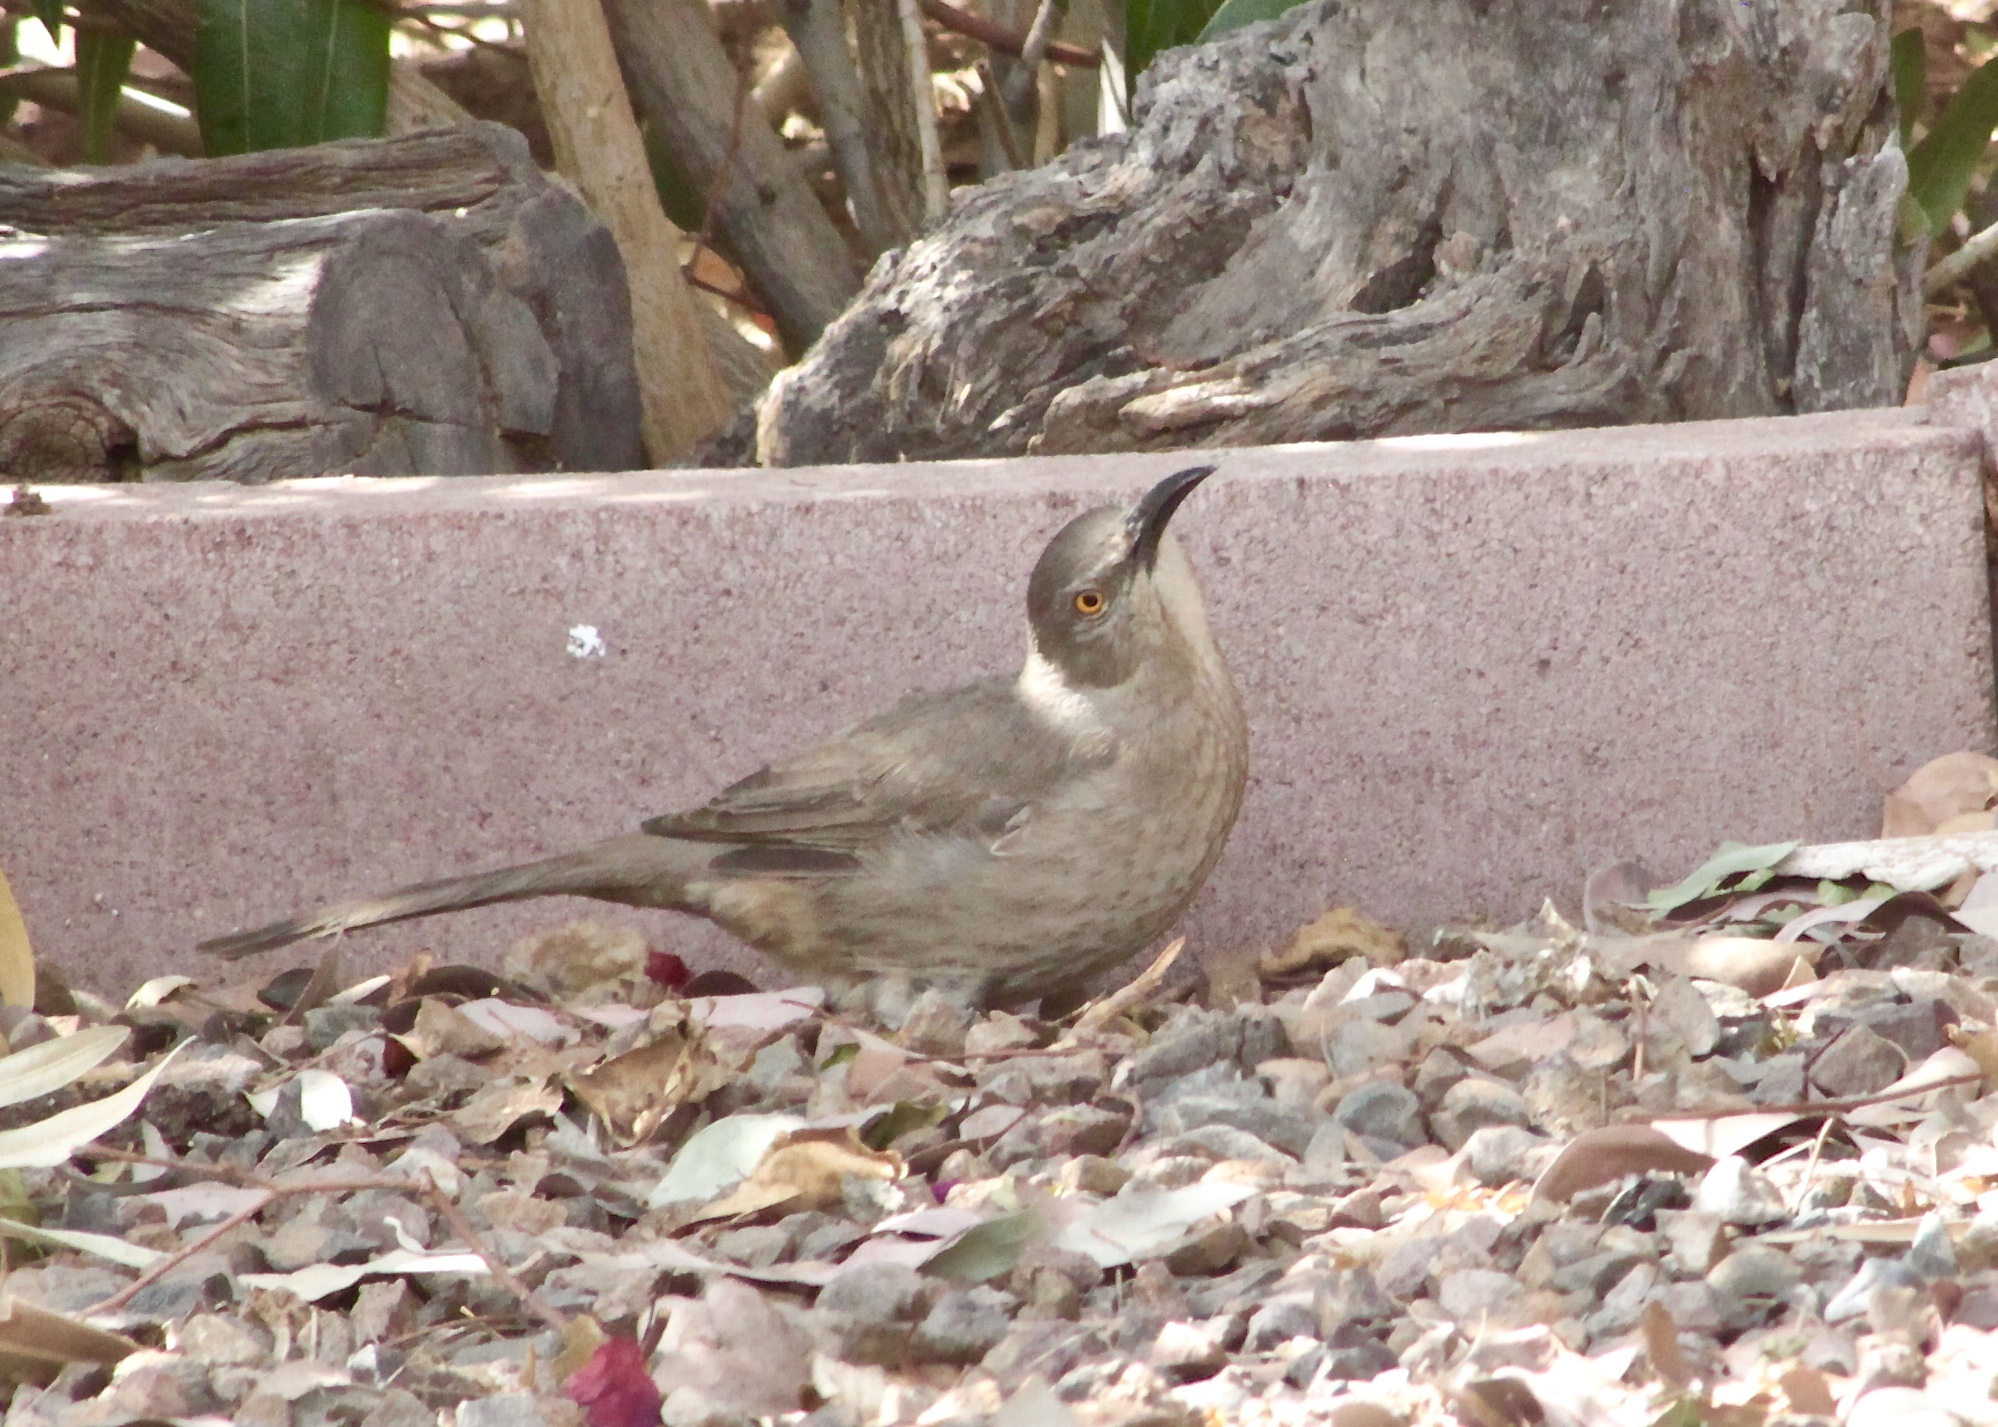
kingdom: Animalia
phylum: Chordata
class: Aves
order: Passeriformes
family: Mimidae
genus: Toxostoma
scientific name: Toxostoma curvirostre
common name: Curve-billed thrasher
